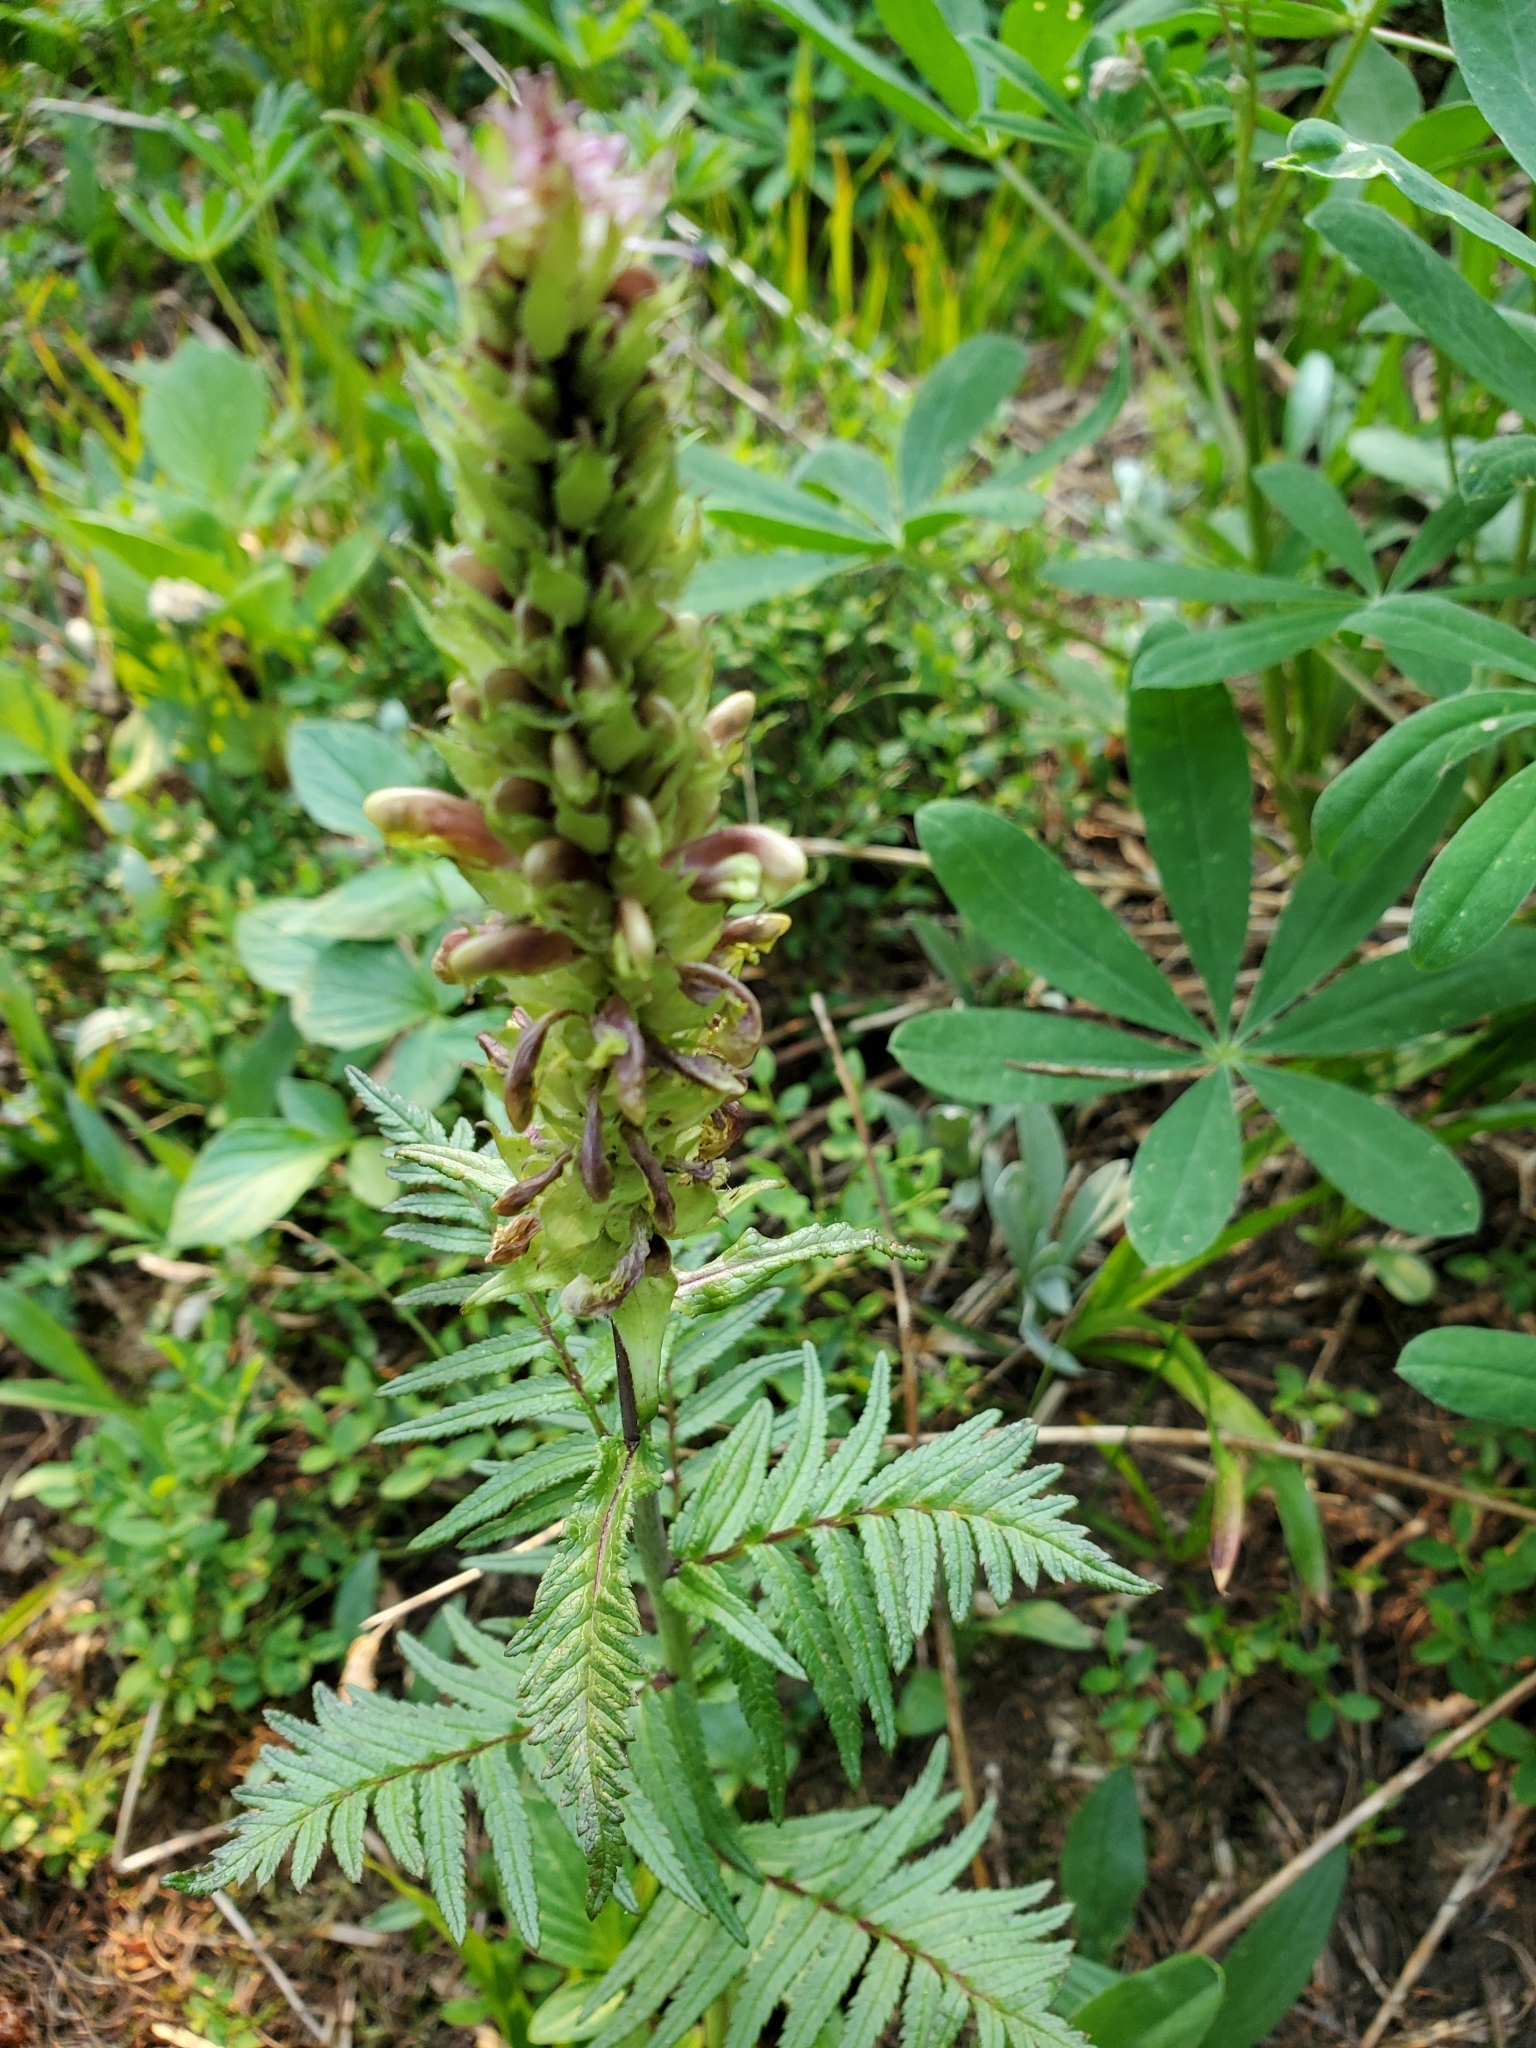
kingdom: Plantae
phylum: Tracheophyta
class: Magnoliopsida
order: Lamiales
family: Orobanchaceae
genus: Pedicularis
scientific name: Pedicularis bracteosa
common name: Bracted lousewort
